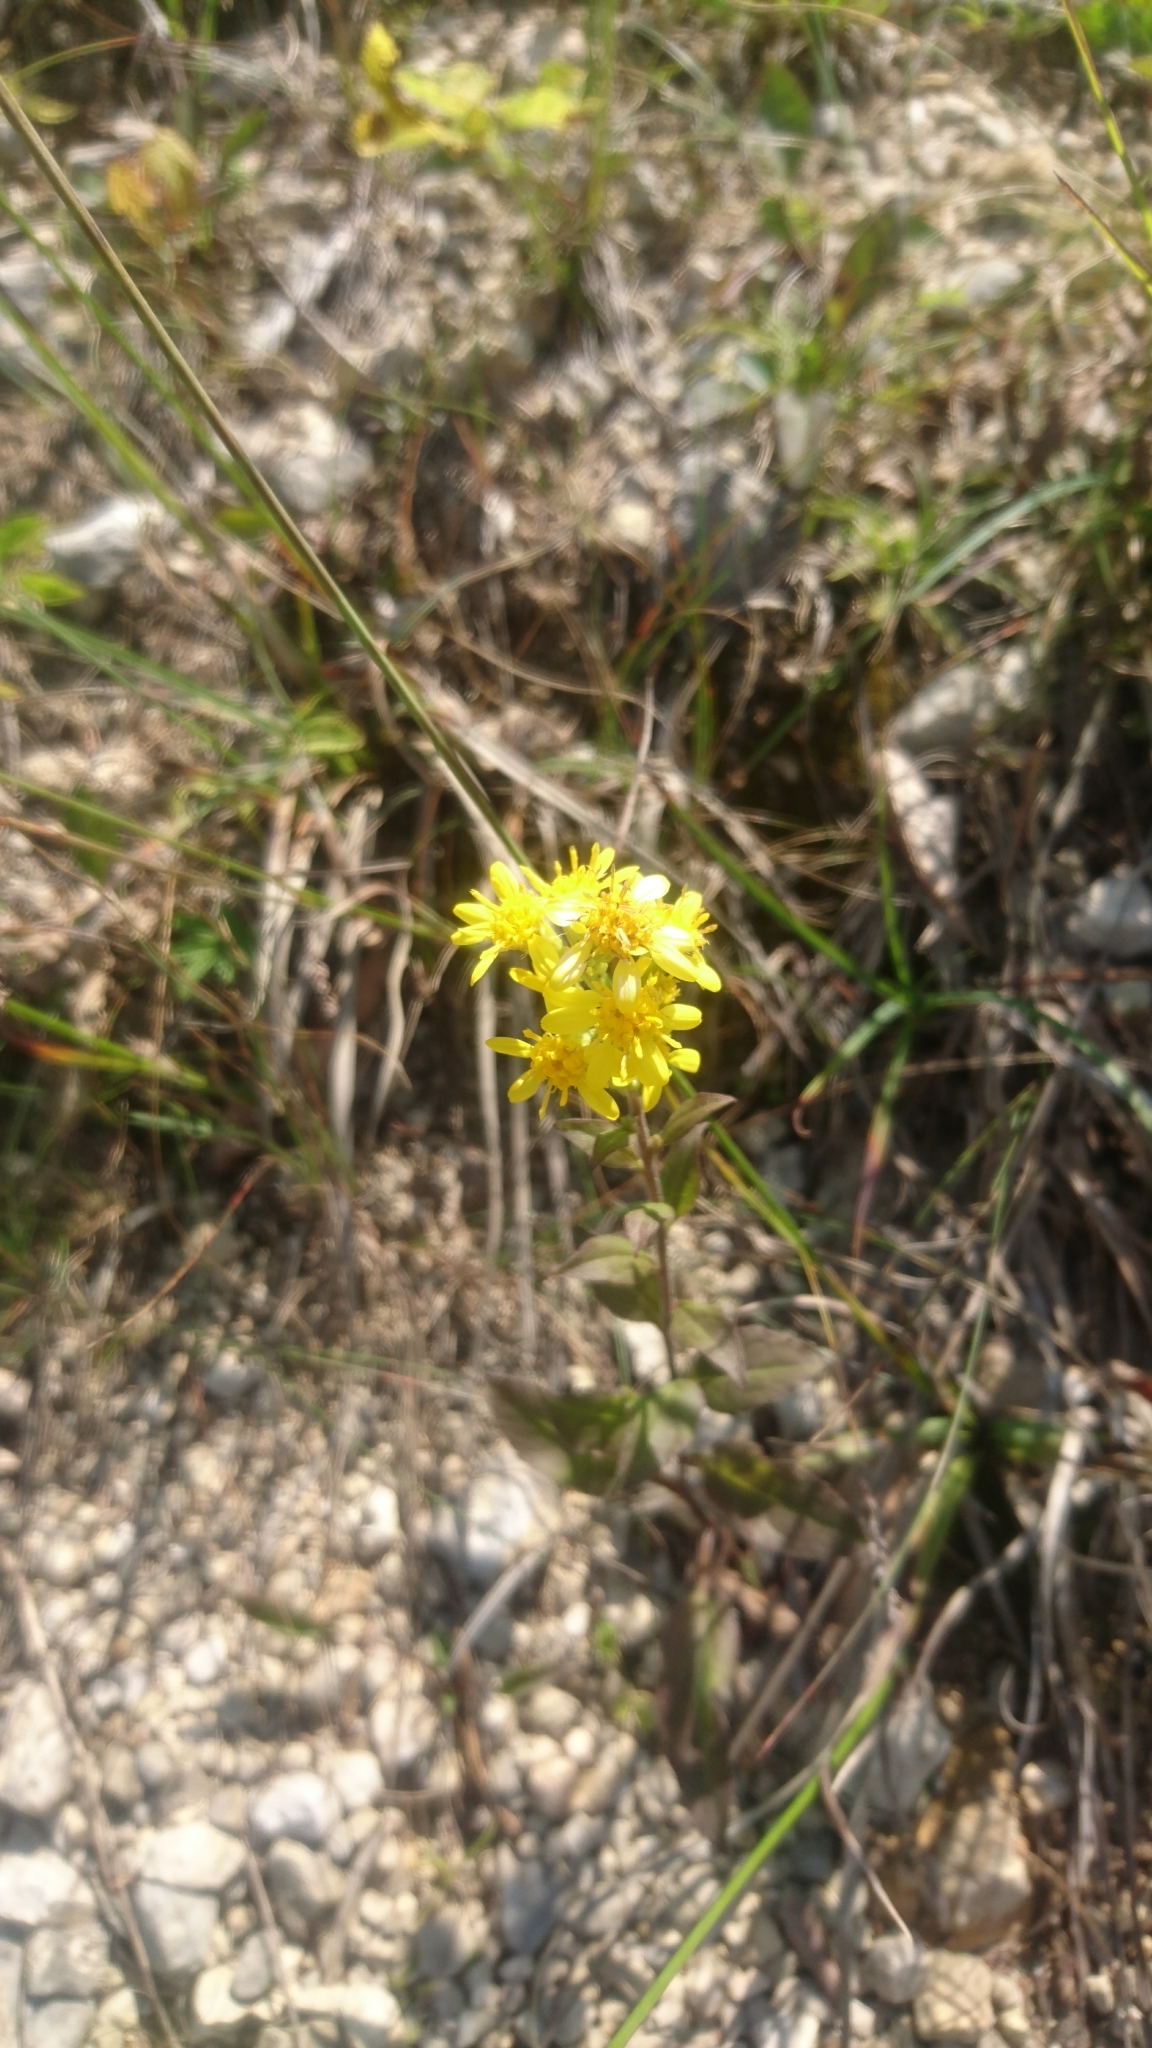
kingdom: Plantae
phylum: Tracheophyta
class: Magnoliopsida
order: Asterales
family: Asteraceae
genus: Solidago
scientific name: Solidago virgaurea
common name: Goldenrod
